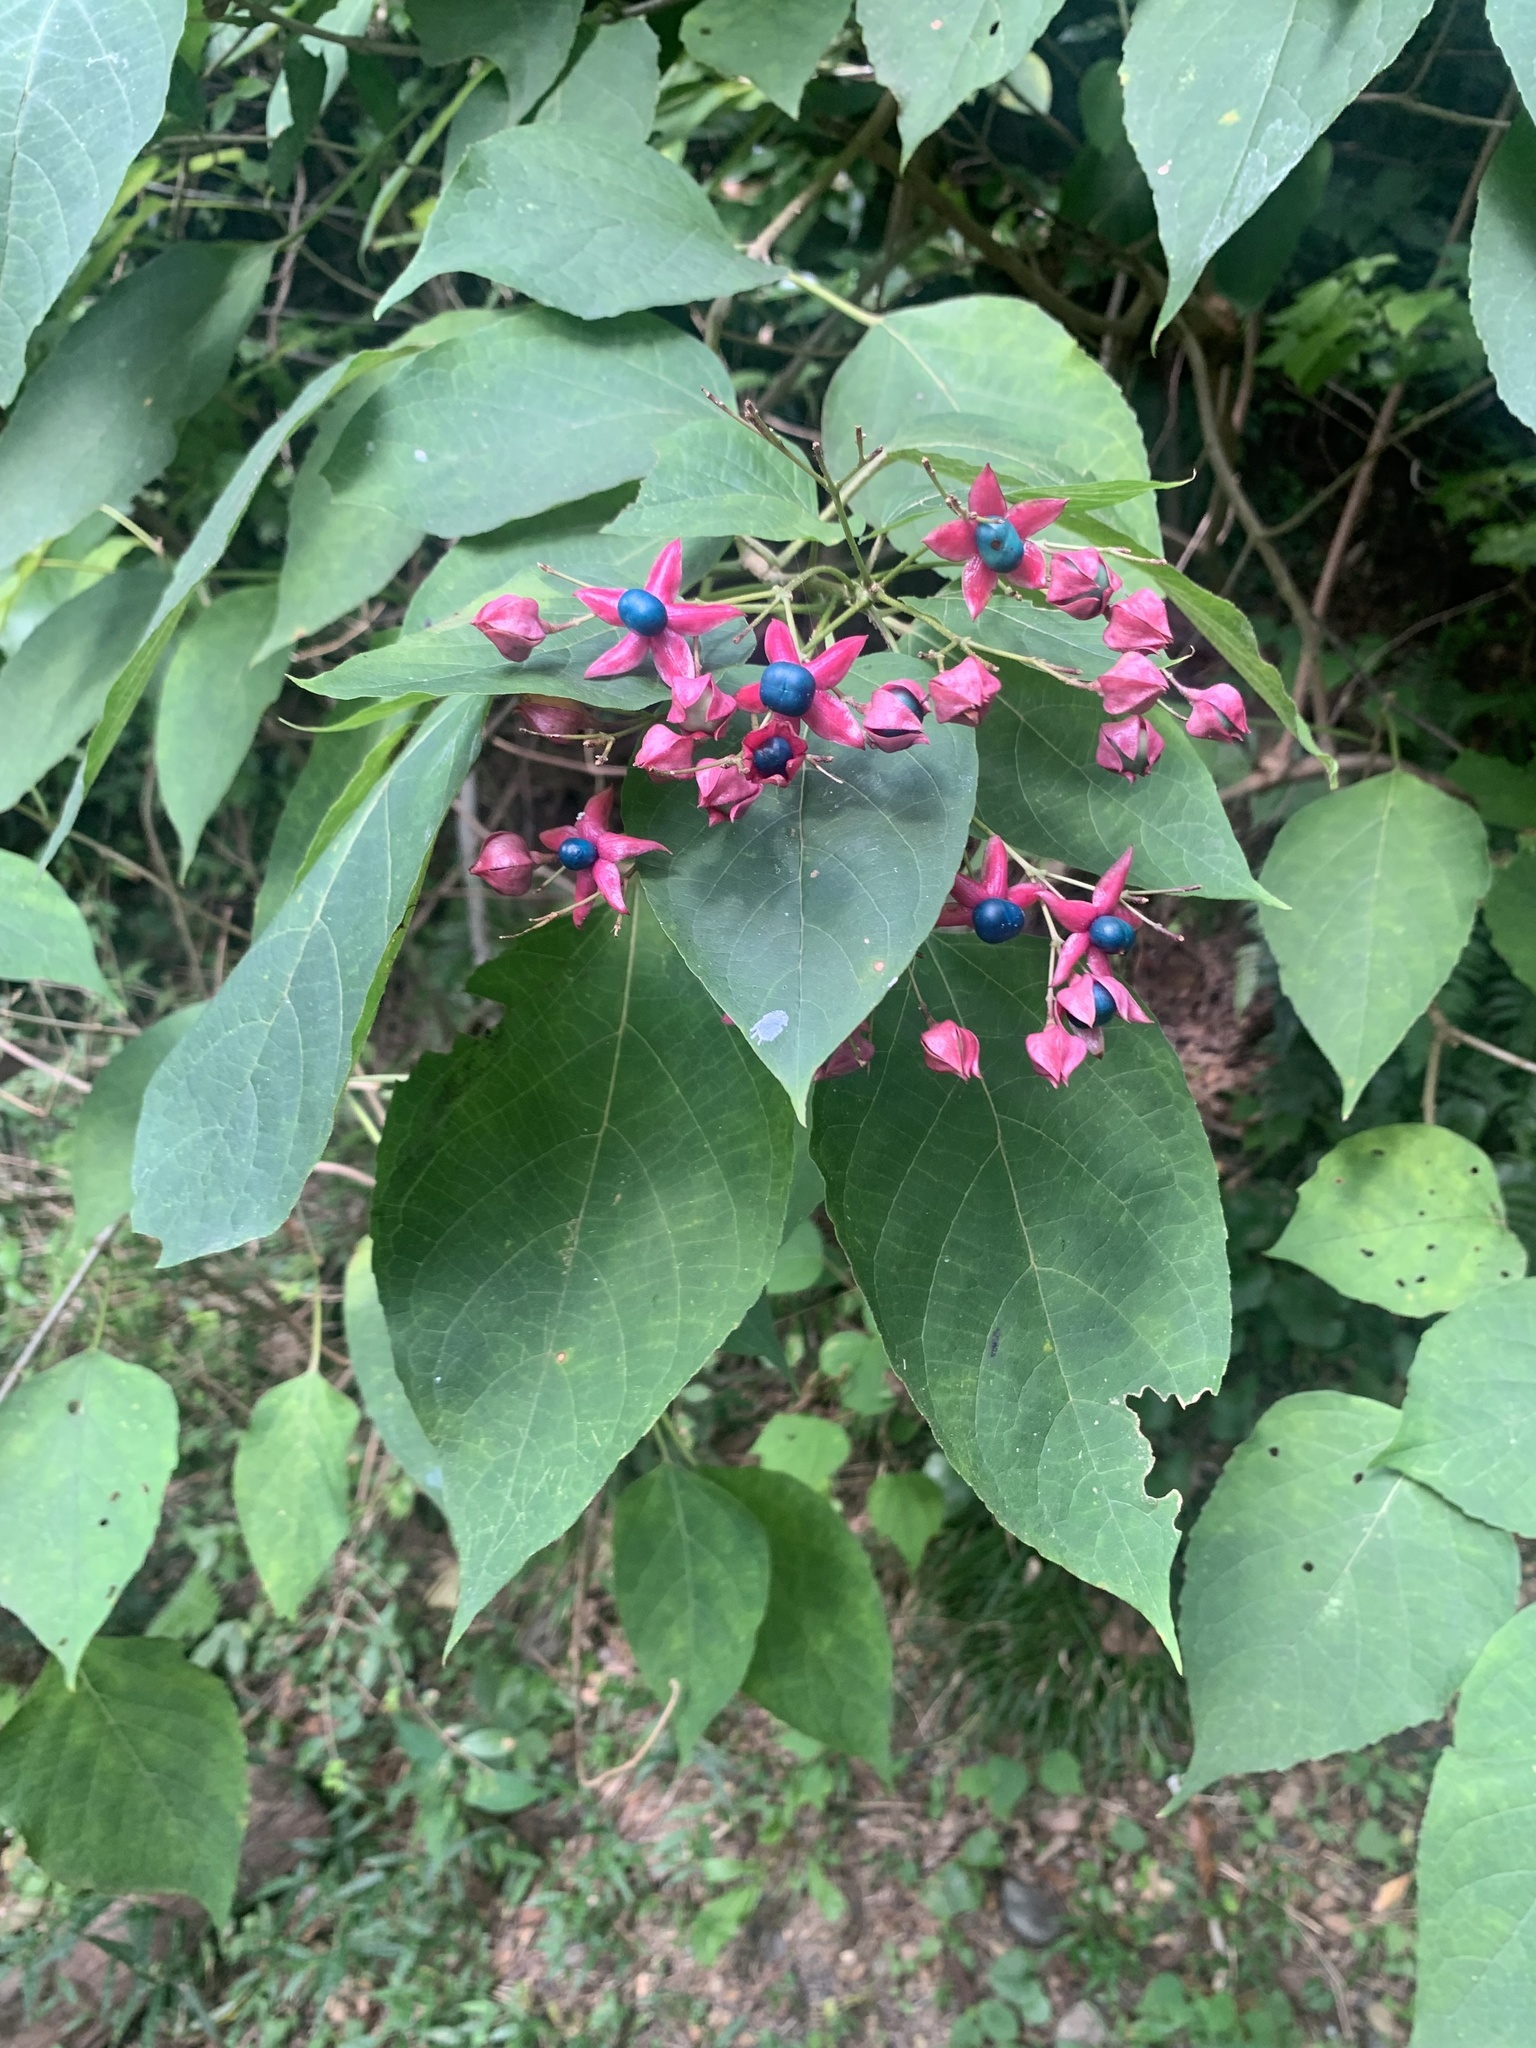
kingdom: Plantae
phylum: Tracheophyta
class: Magnoliopsida
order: Lamiales
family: Lamiaceae
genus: Clerodendrum
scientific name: Clerodendrum trichotomum
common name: Harlequin glorybower
